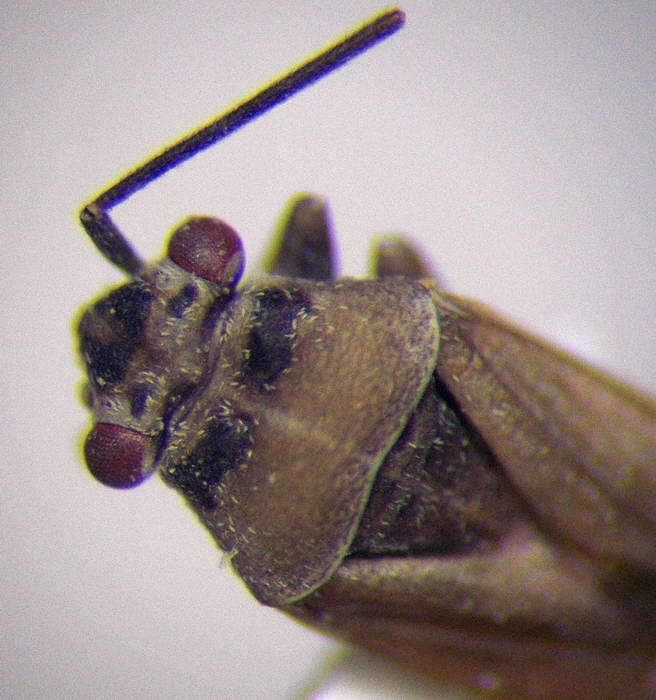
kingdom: Animalia
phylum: Arthropoda
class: Insecta
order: Hemiptera
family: Miridae
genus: Hyoidea
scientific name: Hyoidea notaticeps
